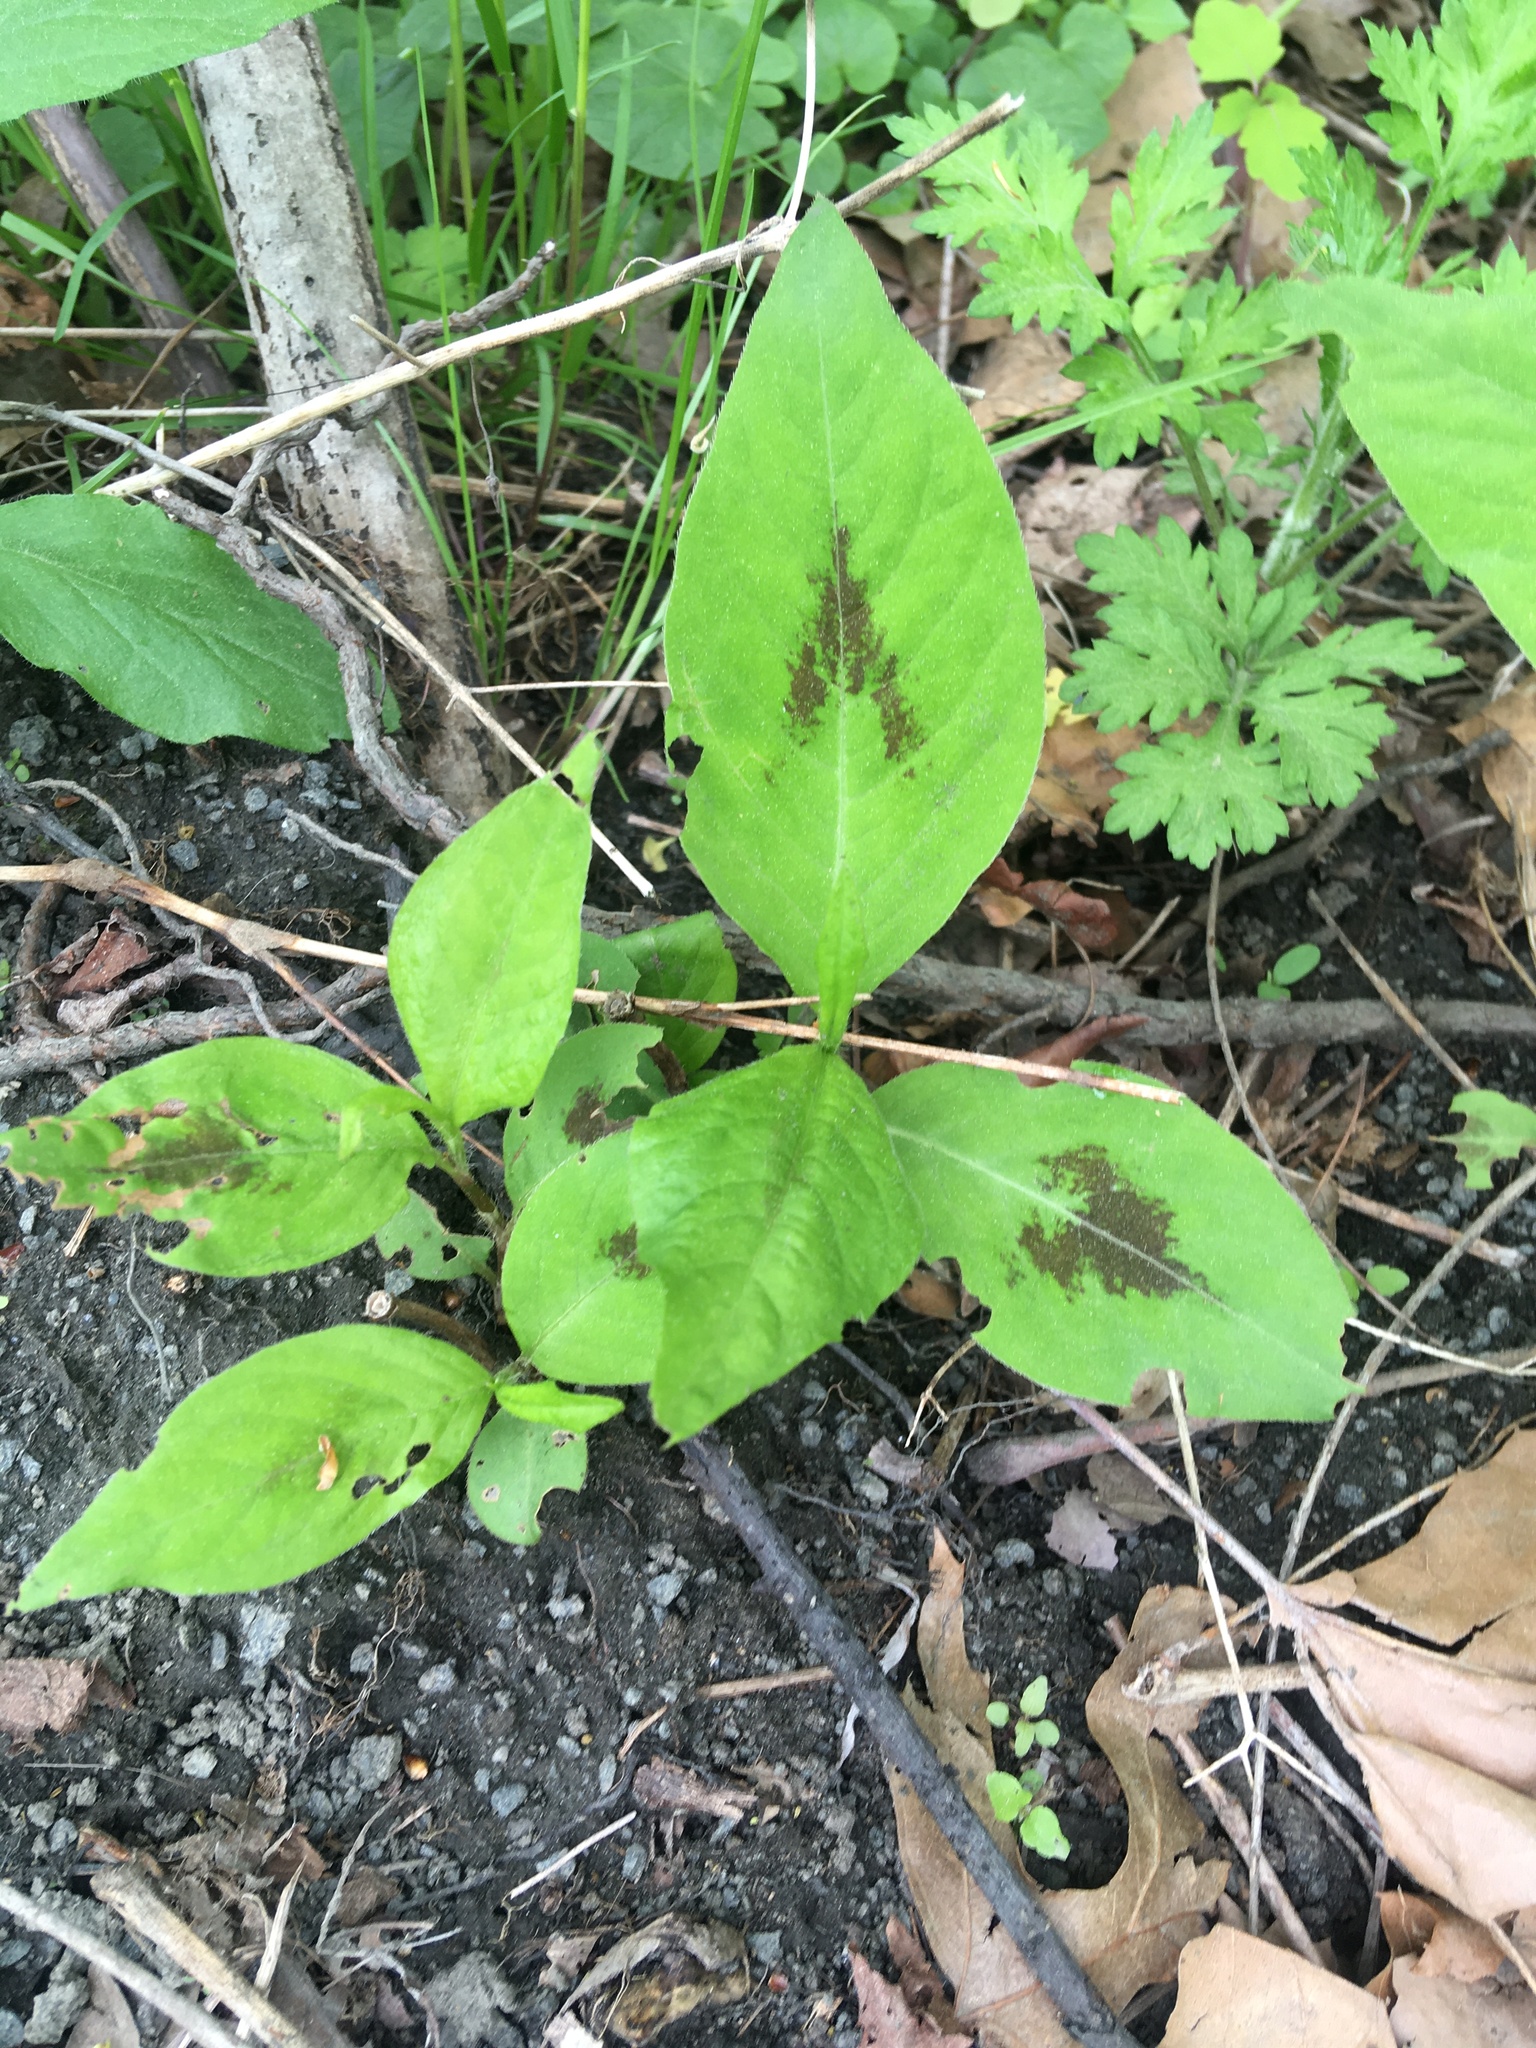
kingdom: Plantae
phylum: Tracheophyta
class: Magnoliopsida
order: Caryophyllales
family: Polygonaceae
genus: Persicaria
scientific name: Persicaria virginiana
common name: Jumpseed
